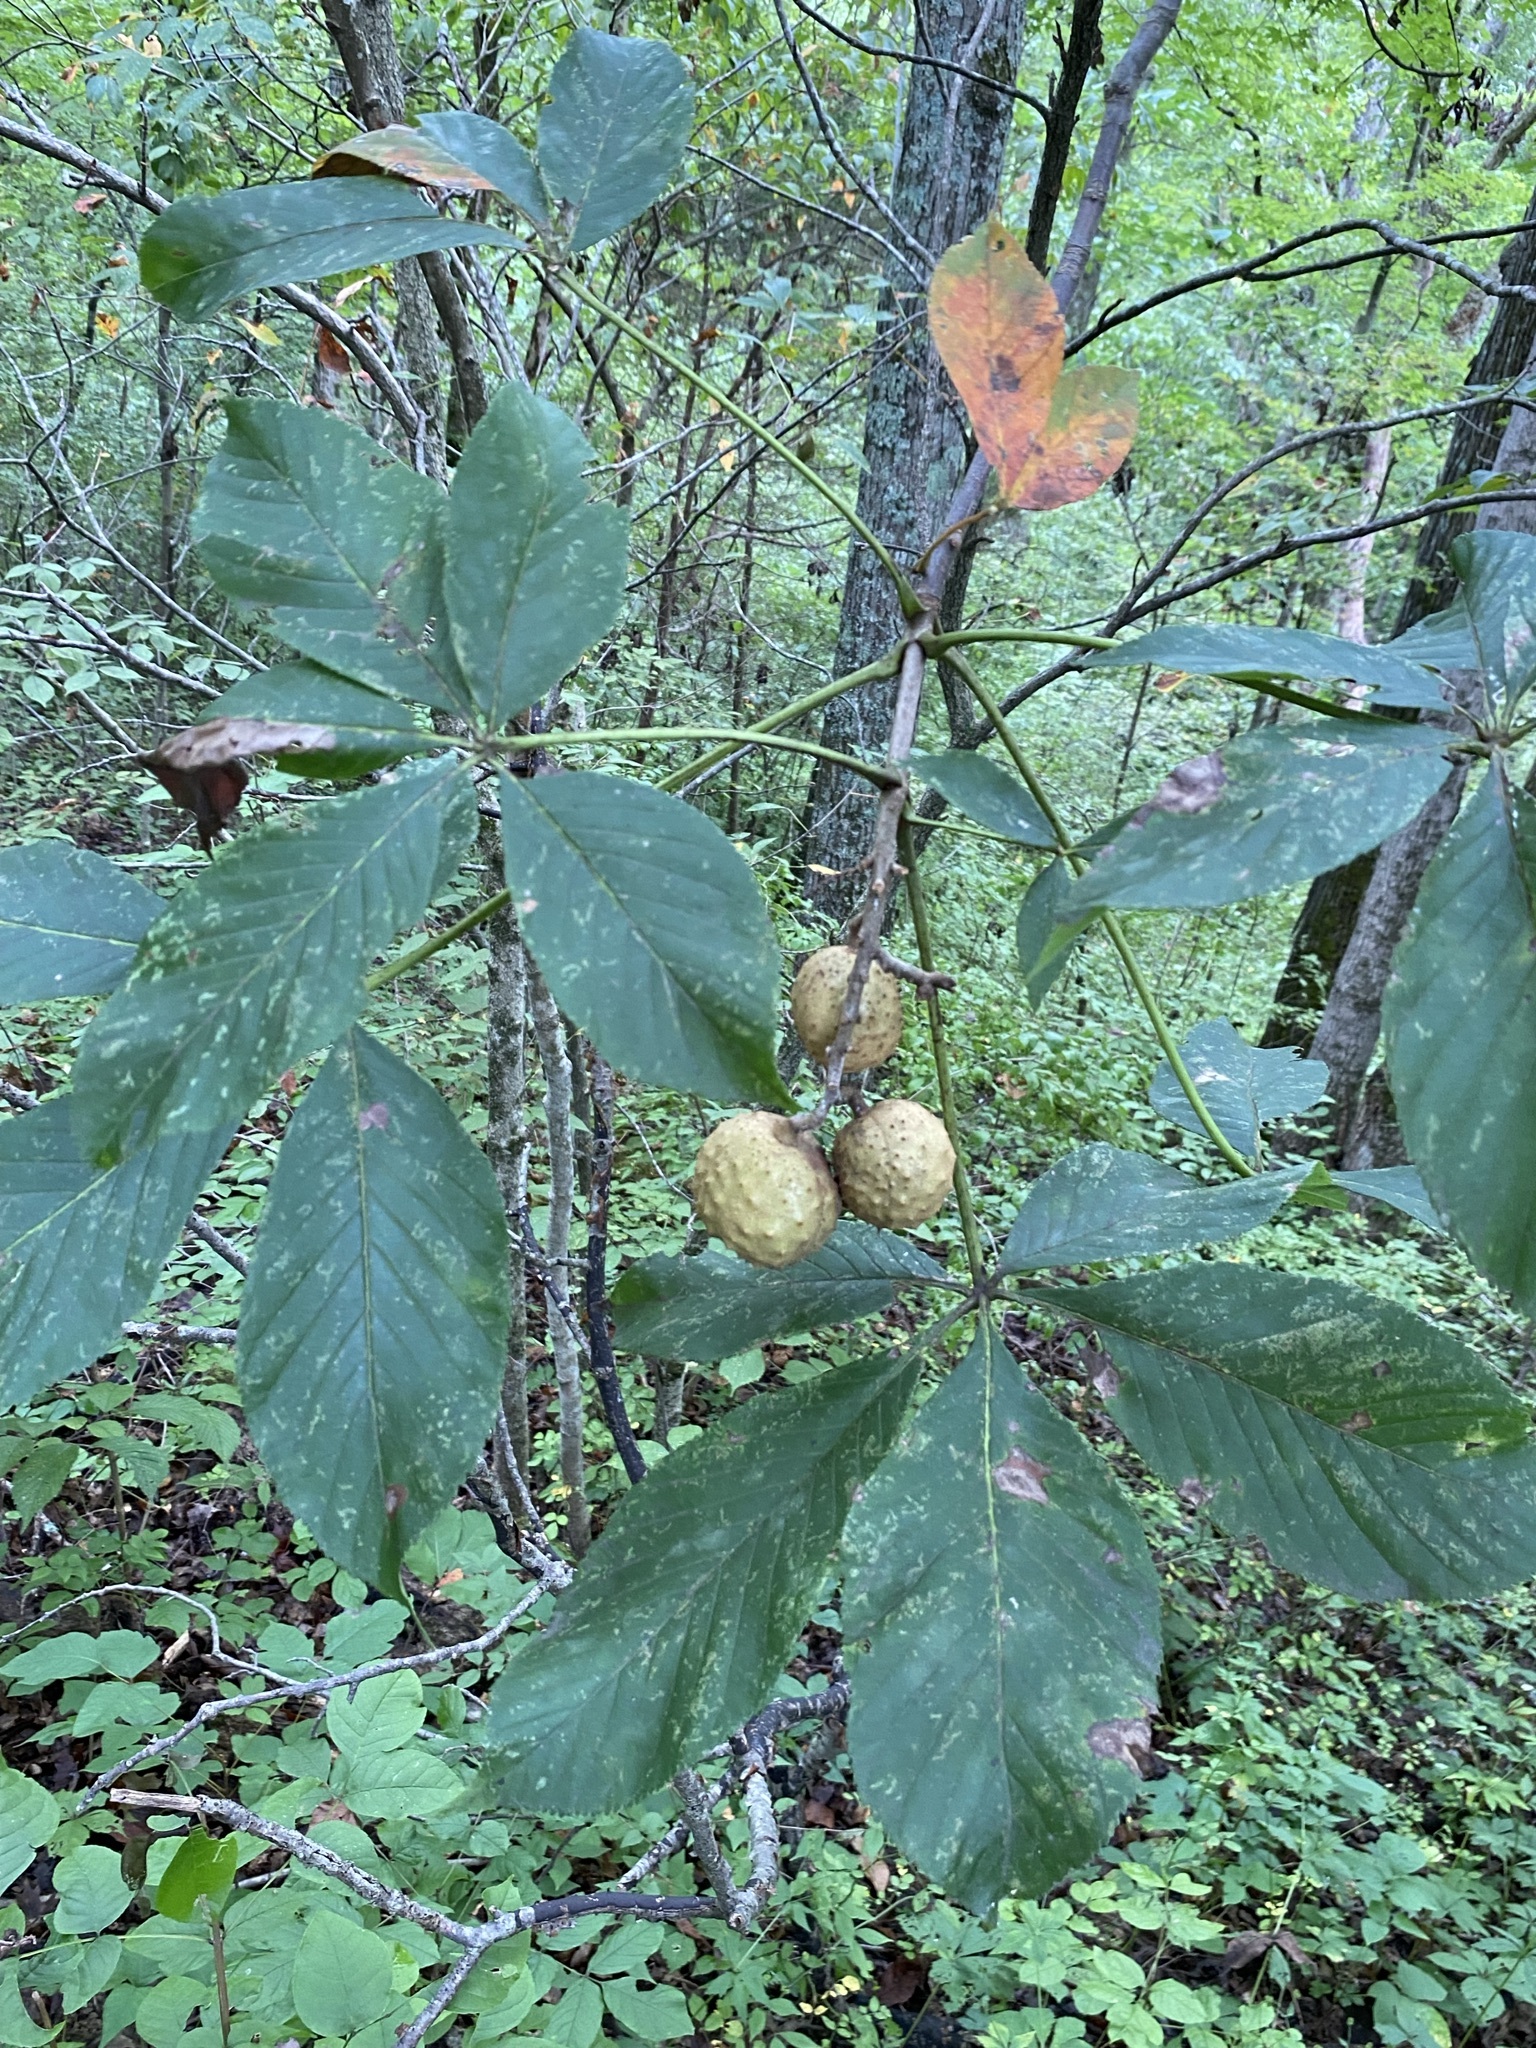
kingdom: Plantae
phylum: Tracheophyta
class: Magnoliopsida
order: Sapindales
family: Sapindaceae
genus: Aesculus
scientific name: Aesculus glabra
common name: Ohio buckeye
